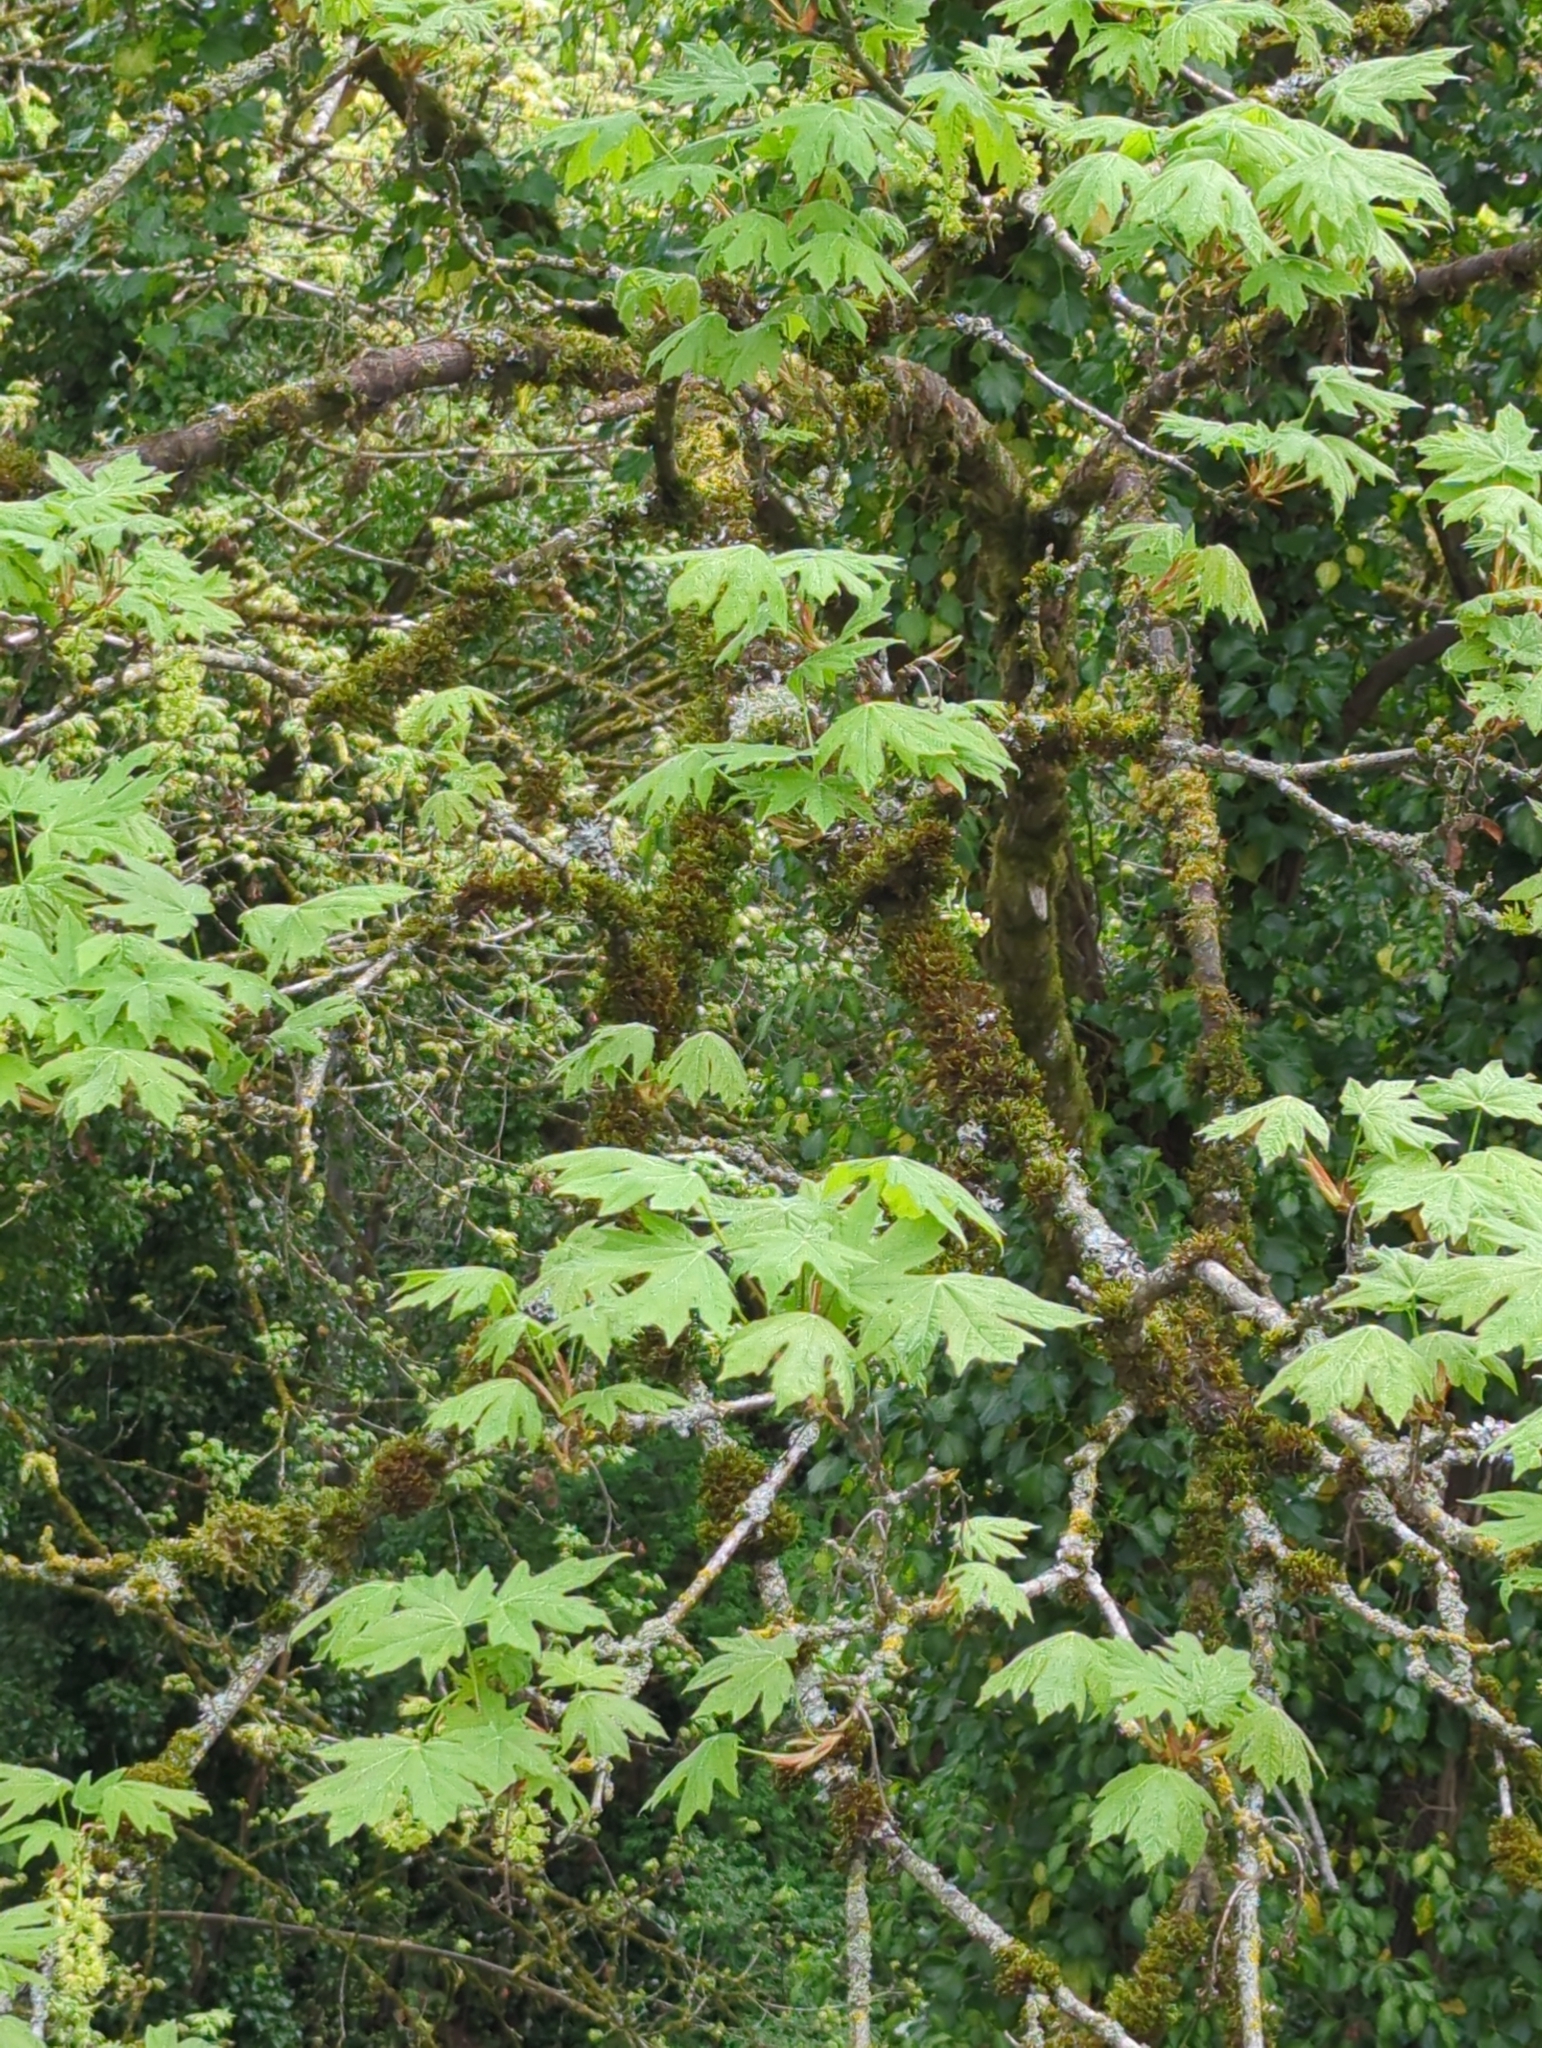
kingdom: Plantae
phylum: Tracheophyta
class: Magnoliopsida
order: Sapindales
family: Sapindaceae
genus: Acer
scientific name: Acer macrophyllum
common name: Oregon maple
